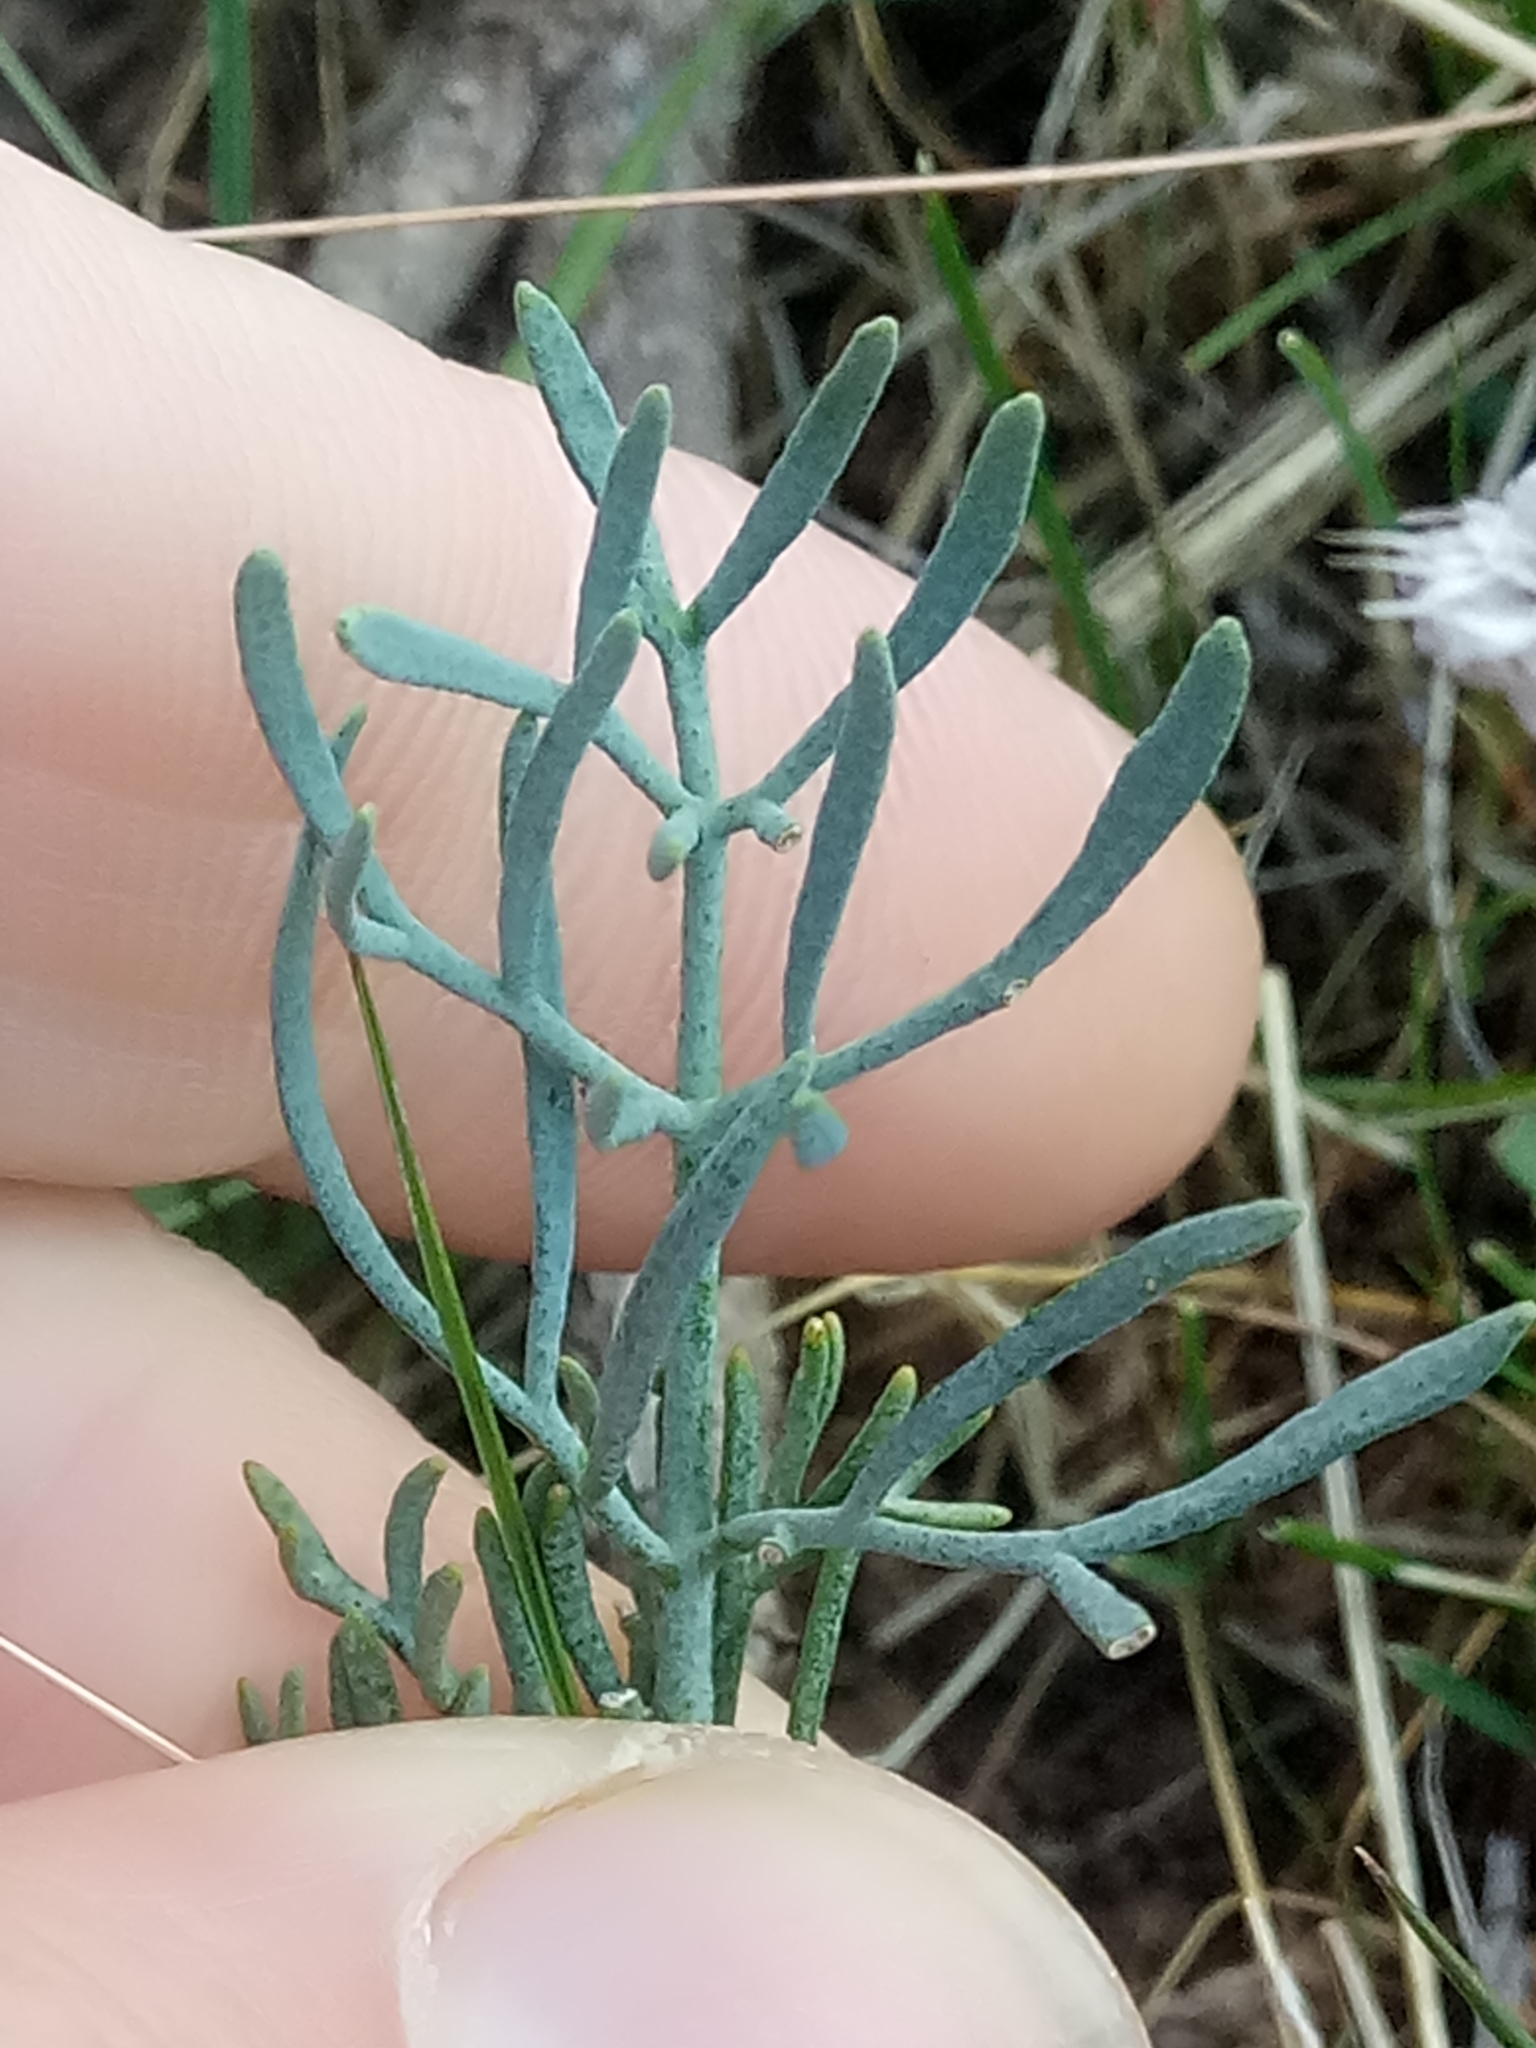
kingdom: Plantae
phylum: Tracheophyta
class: Magnoliopsida
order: Sapindales
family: Rutaceae
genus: Ruta
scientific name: Ruta montana
